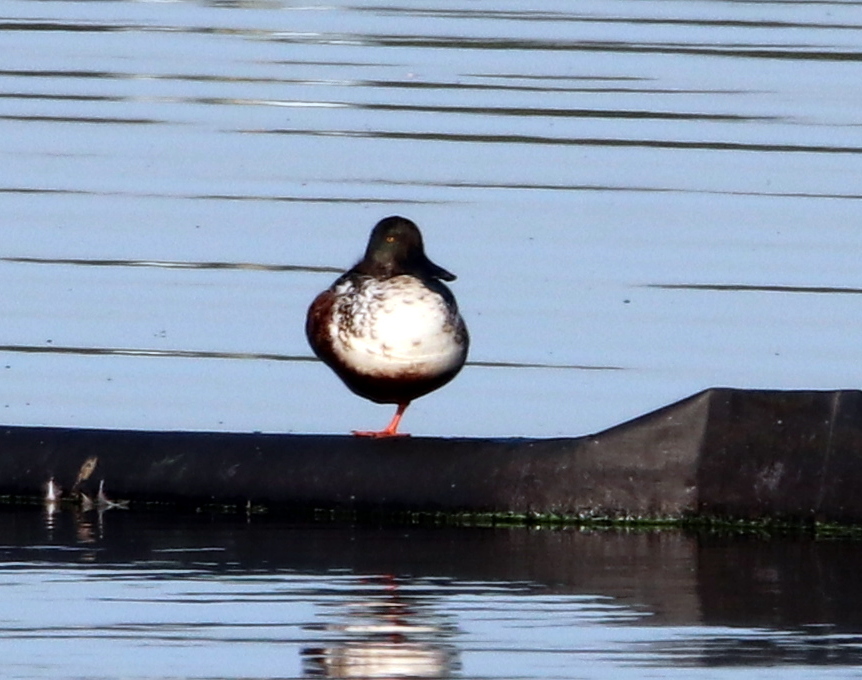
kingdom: Animalia
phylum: Chordata
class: Aves
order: Anseriformes
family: Anatidae
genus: Spatula
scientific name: Spatula clypeata
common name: Northern shoveler
